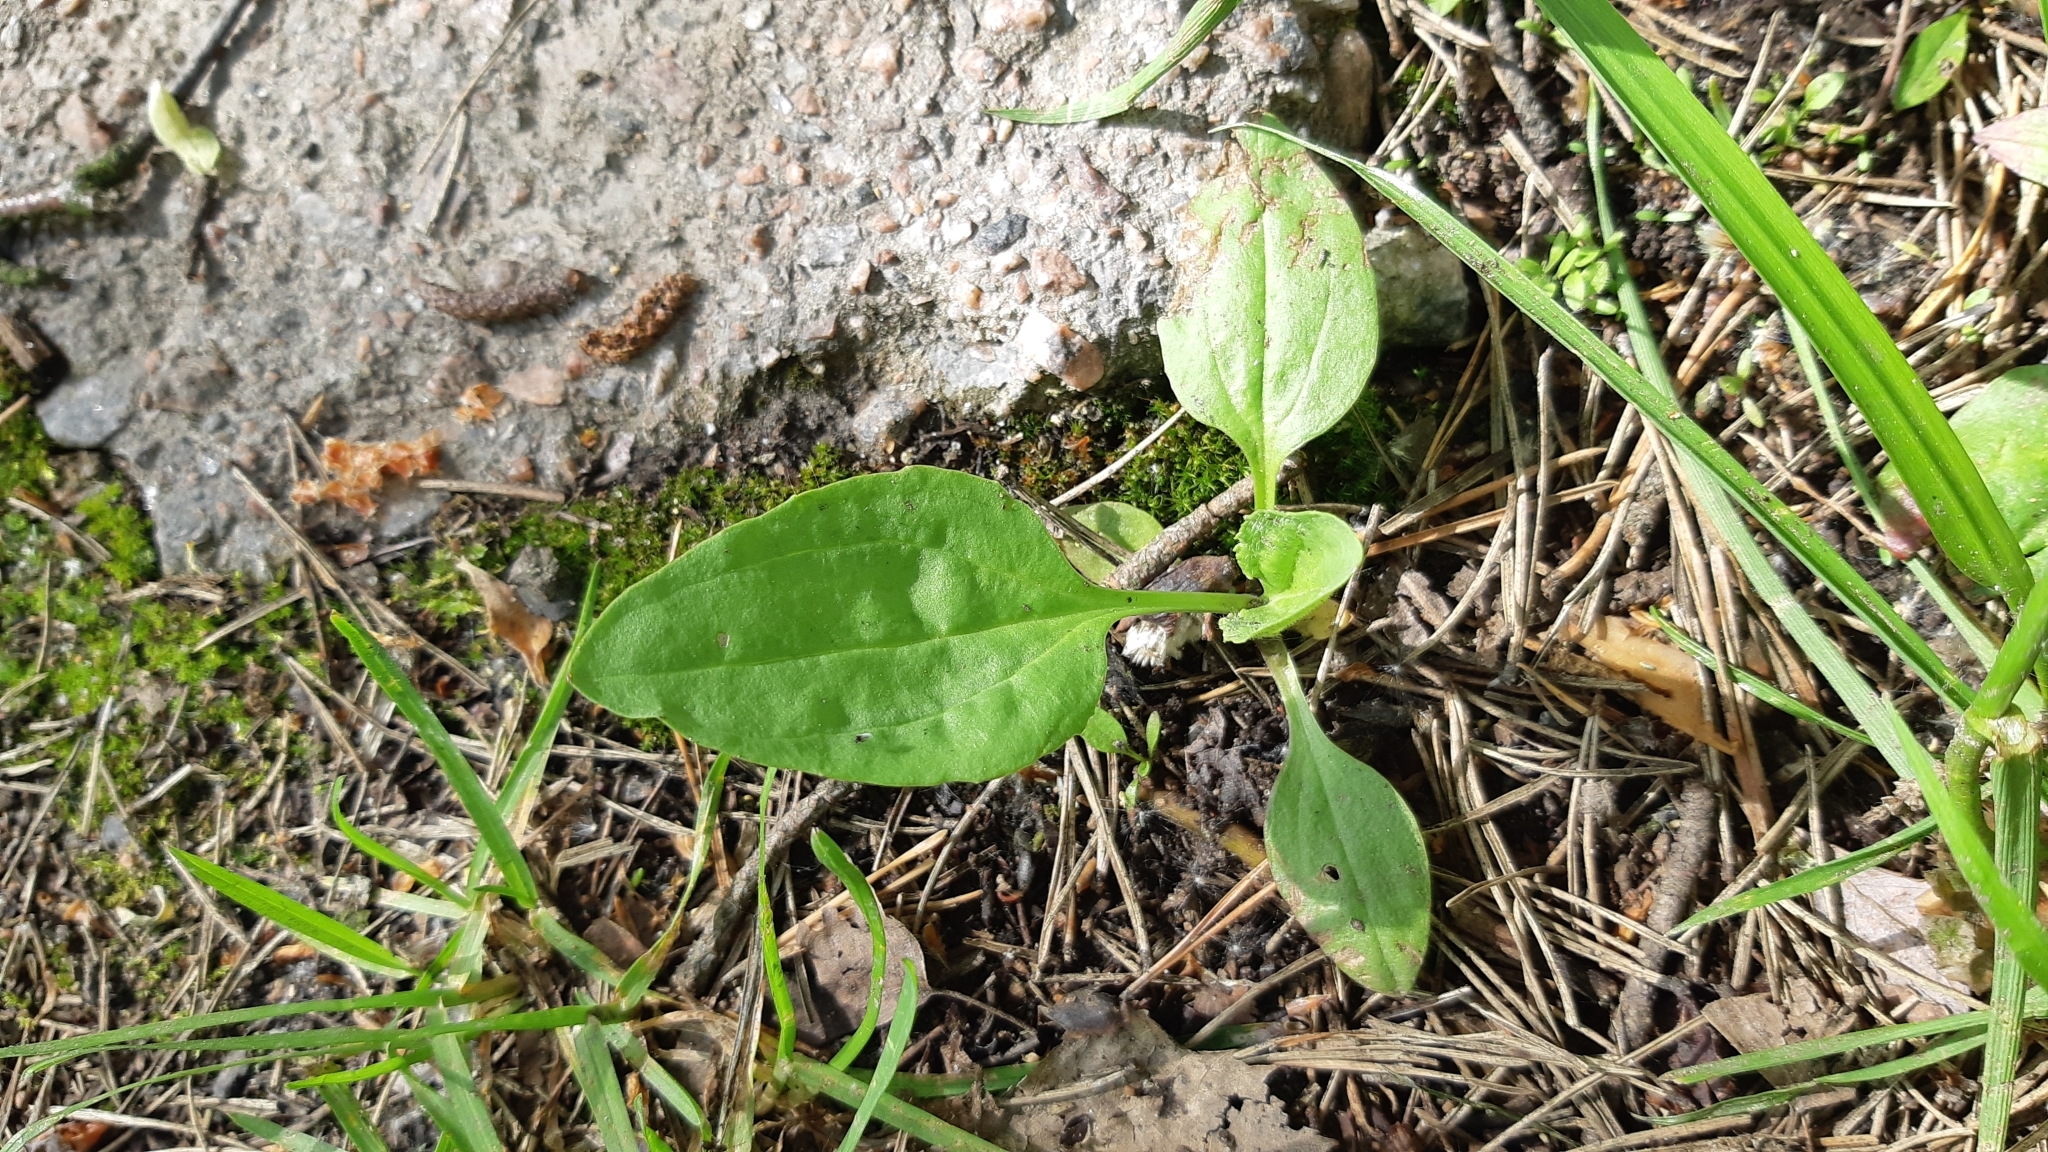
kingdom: Plantae
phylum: Tracheophyta
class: Magnoliopsida
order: Lamiales
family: Plantaginaceae
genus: Plantago
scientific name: Plantago major
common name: Common plantain
